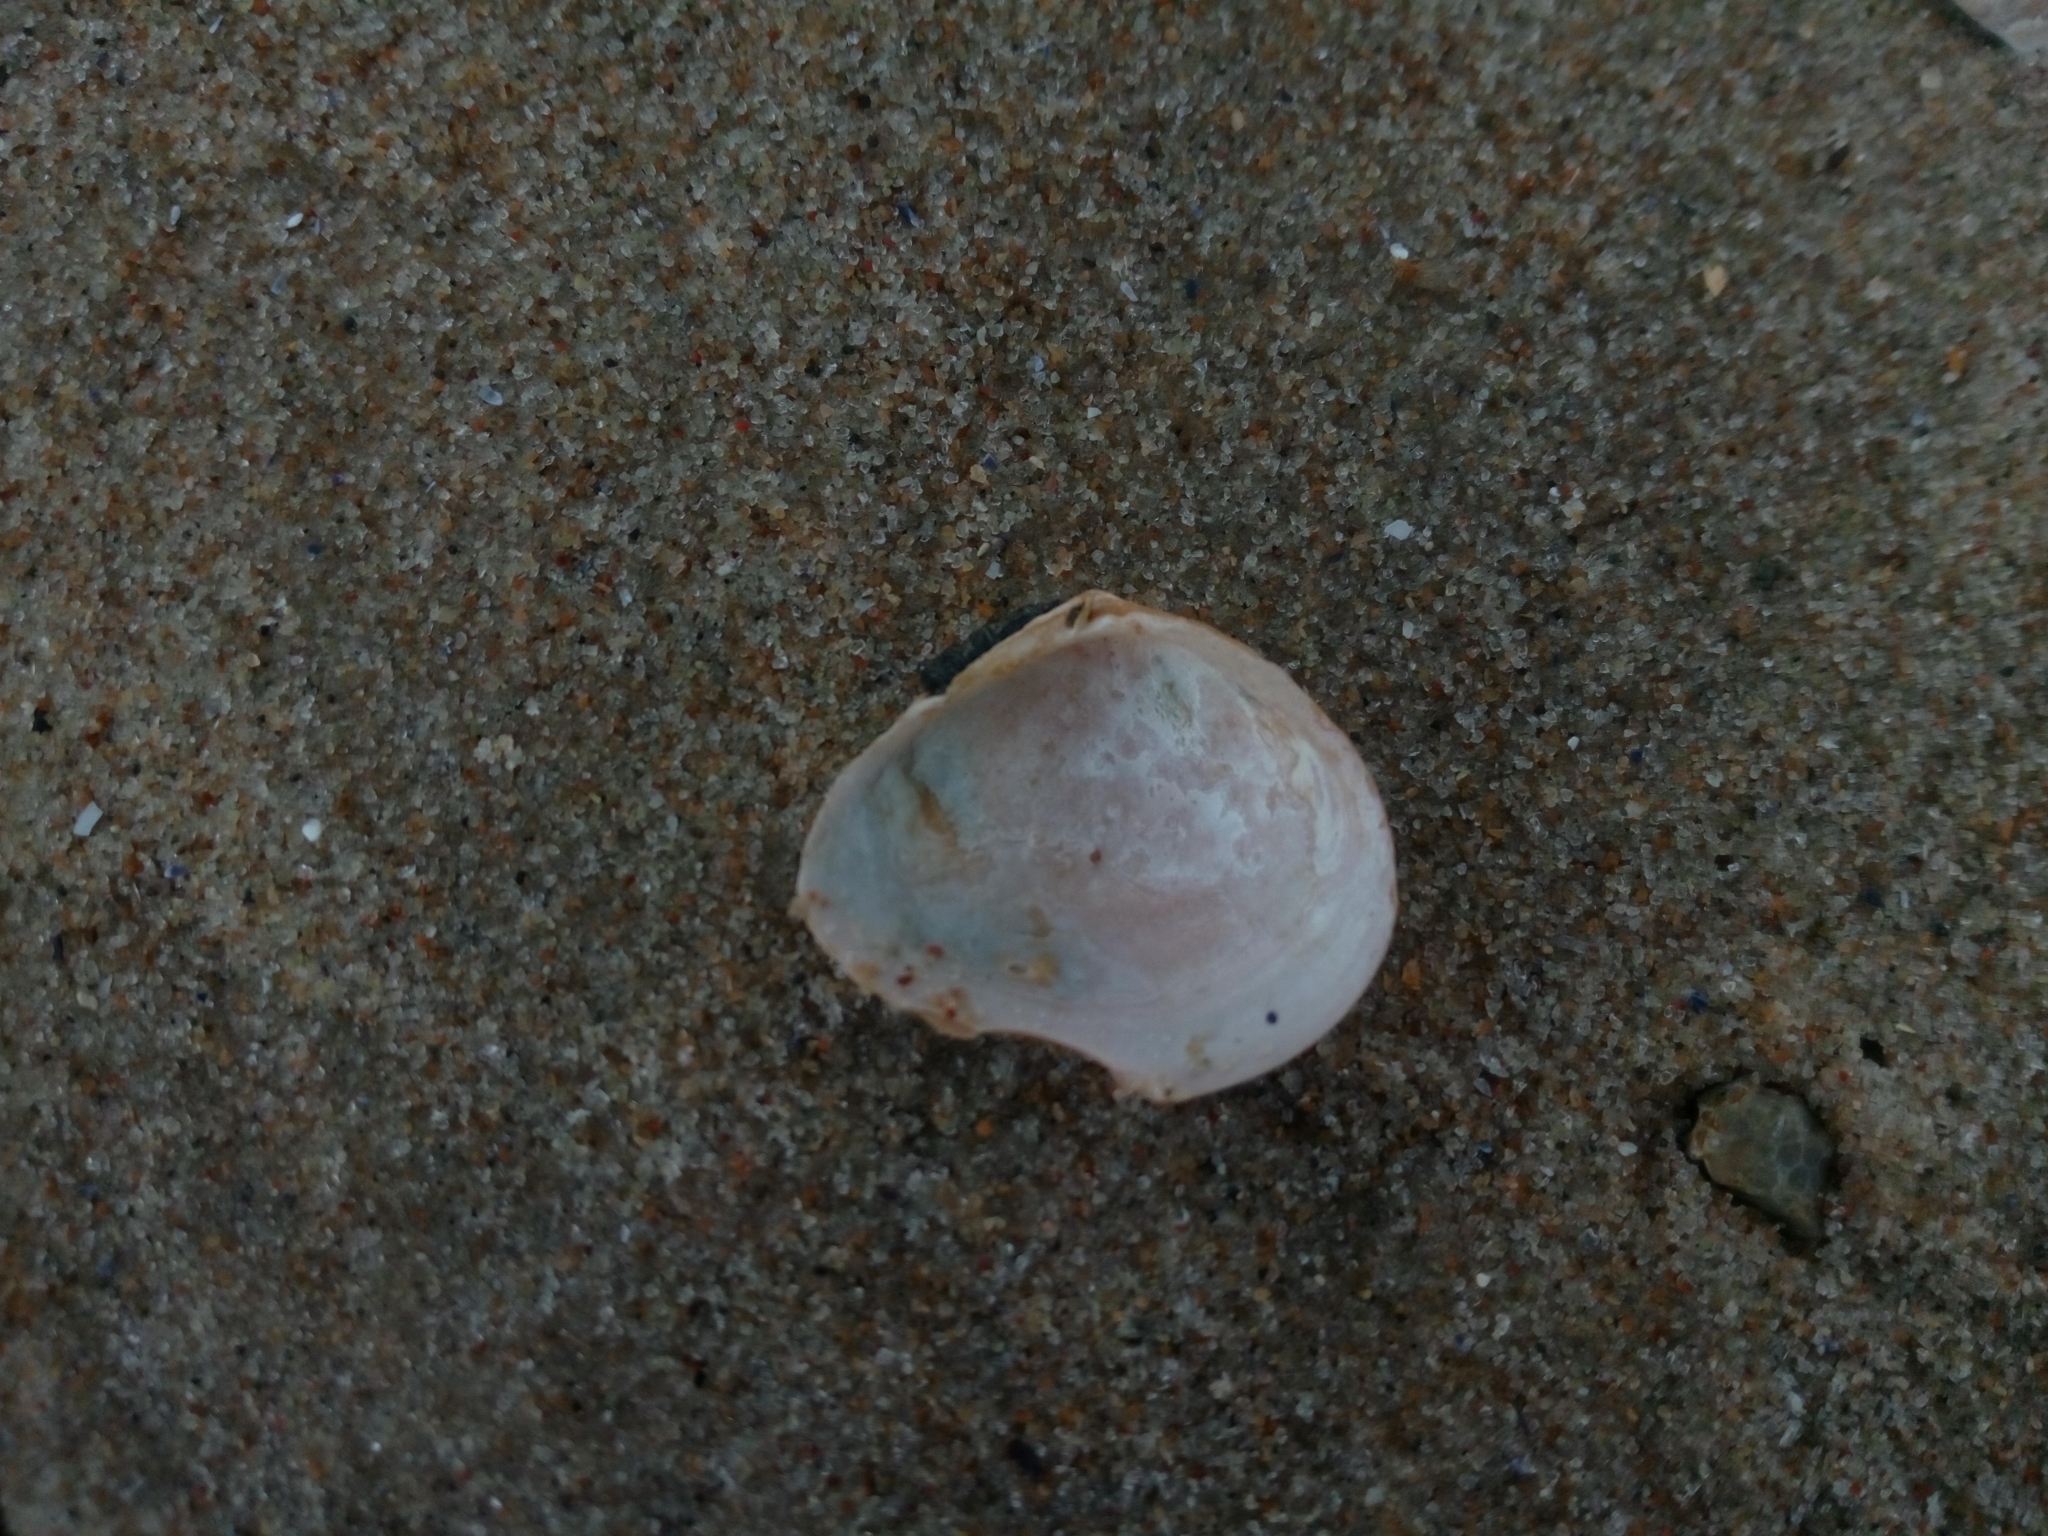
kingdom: Animalia
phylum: Mollusca
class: Bivalvia
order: Cardiida
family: Tellinidae
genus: Macoma
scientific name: Macoma balthica
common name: Baltic tellin
